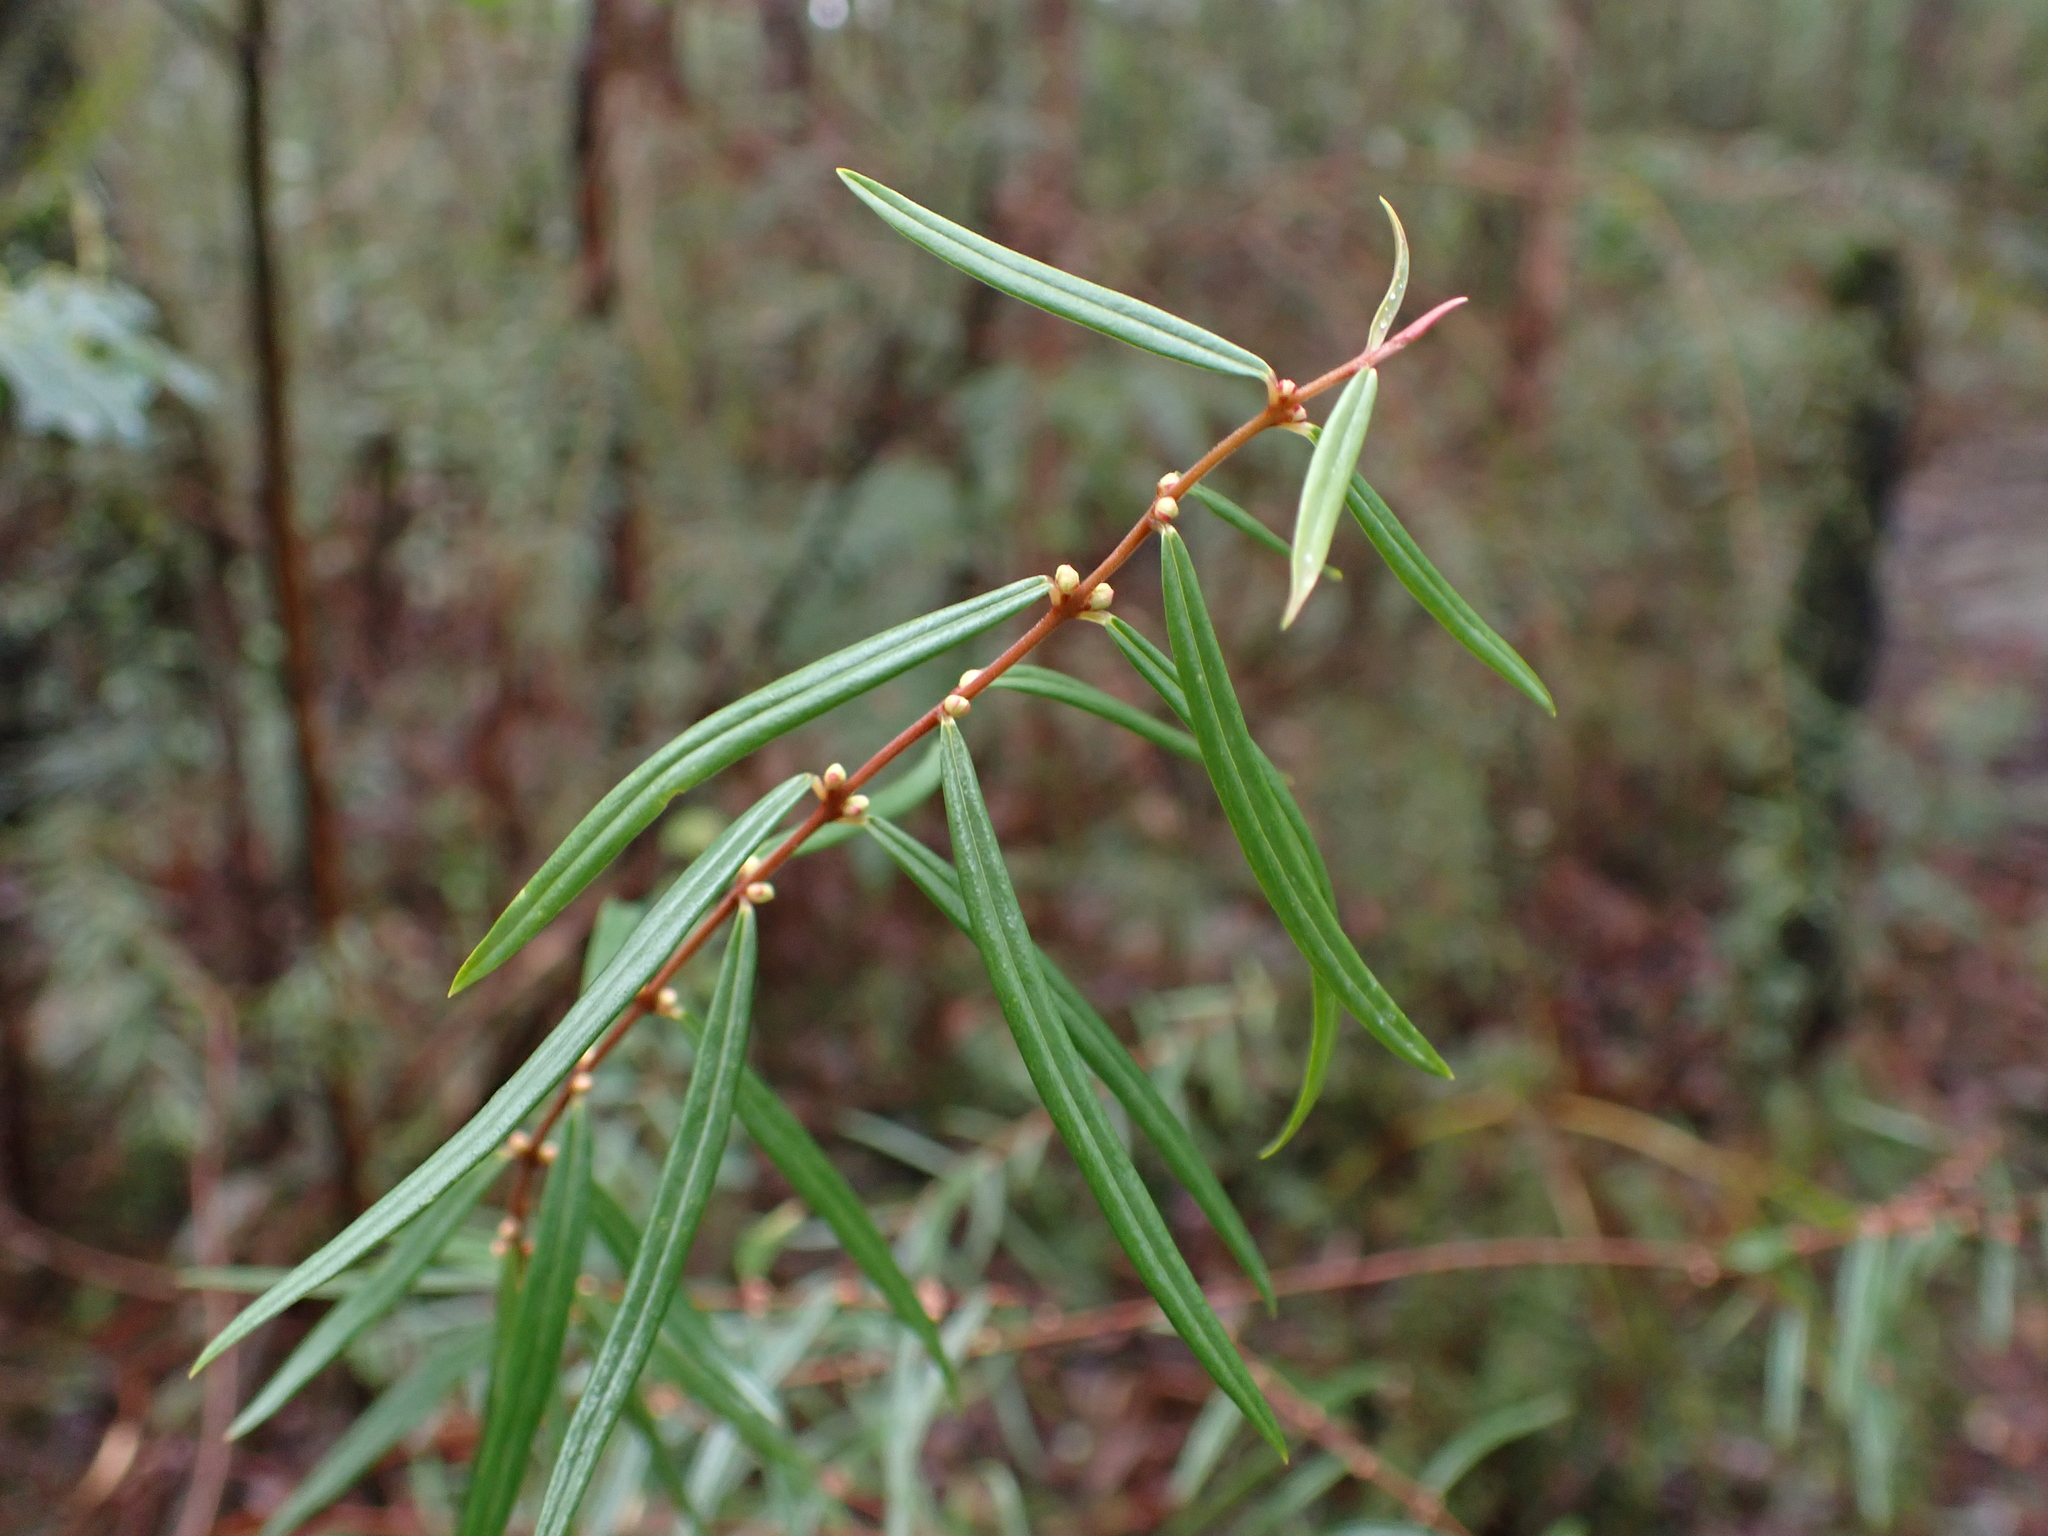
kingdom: Plantae
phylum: Tracheophyta
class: Magnoliopsida
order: Malvales
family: Thymelaeaceae
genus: Pimelea
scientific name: Pimelea axiflora
